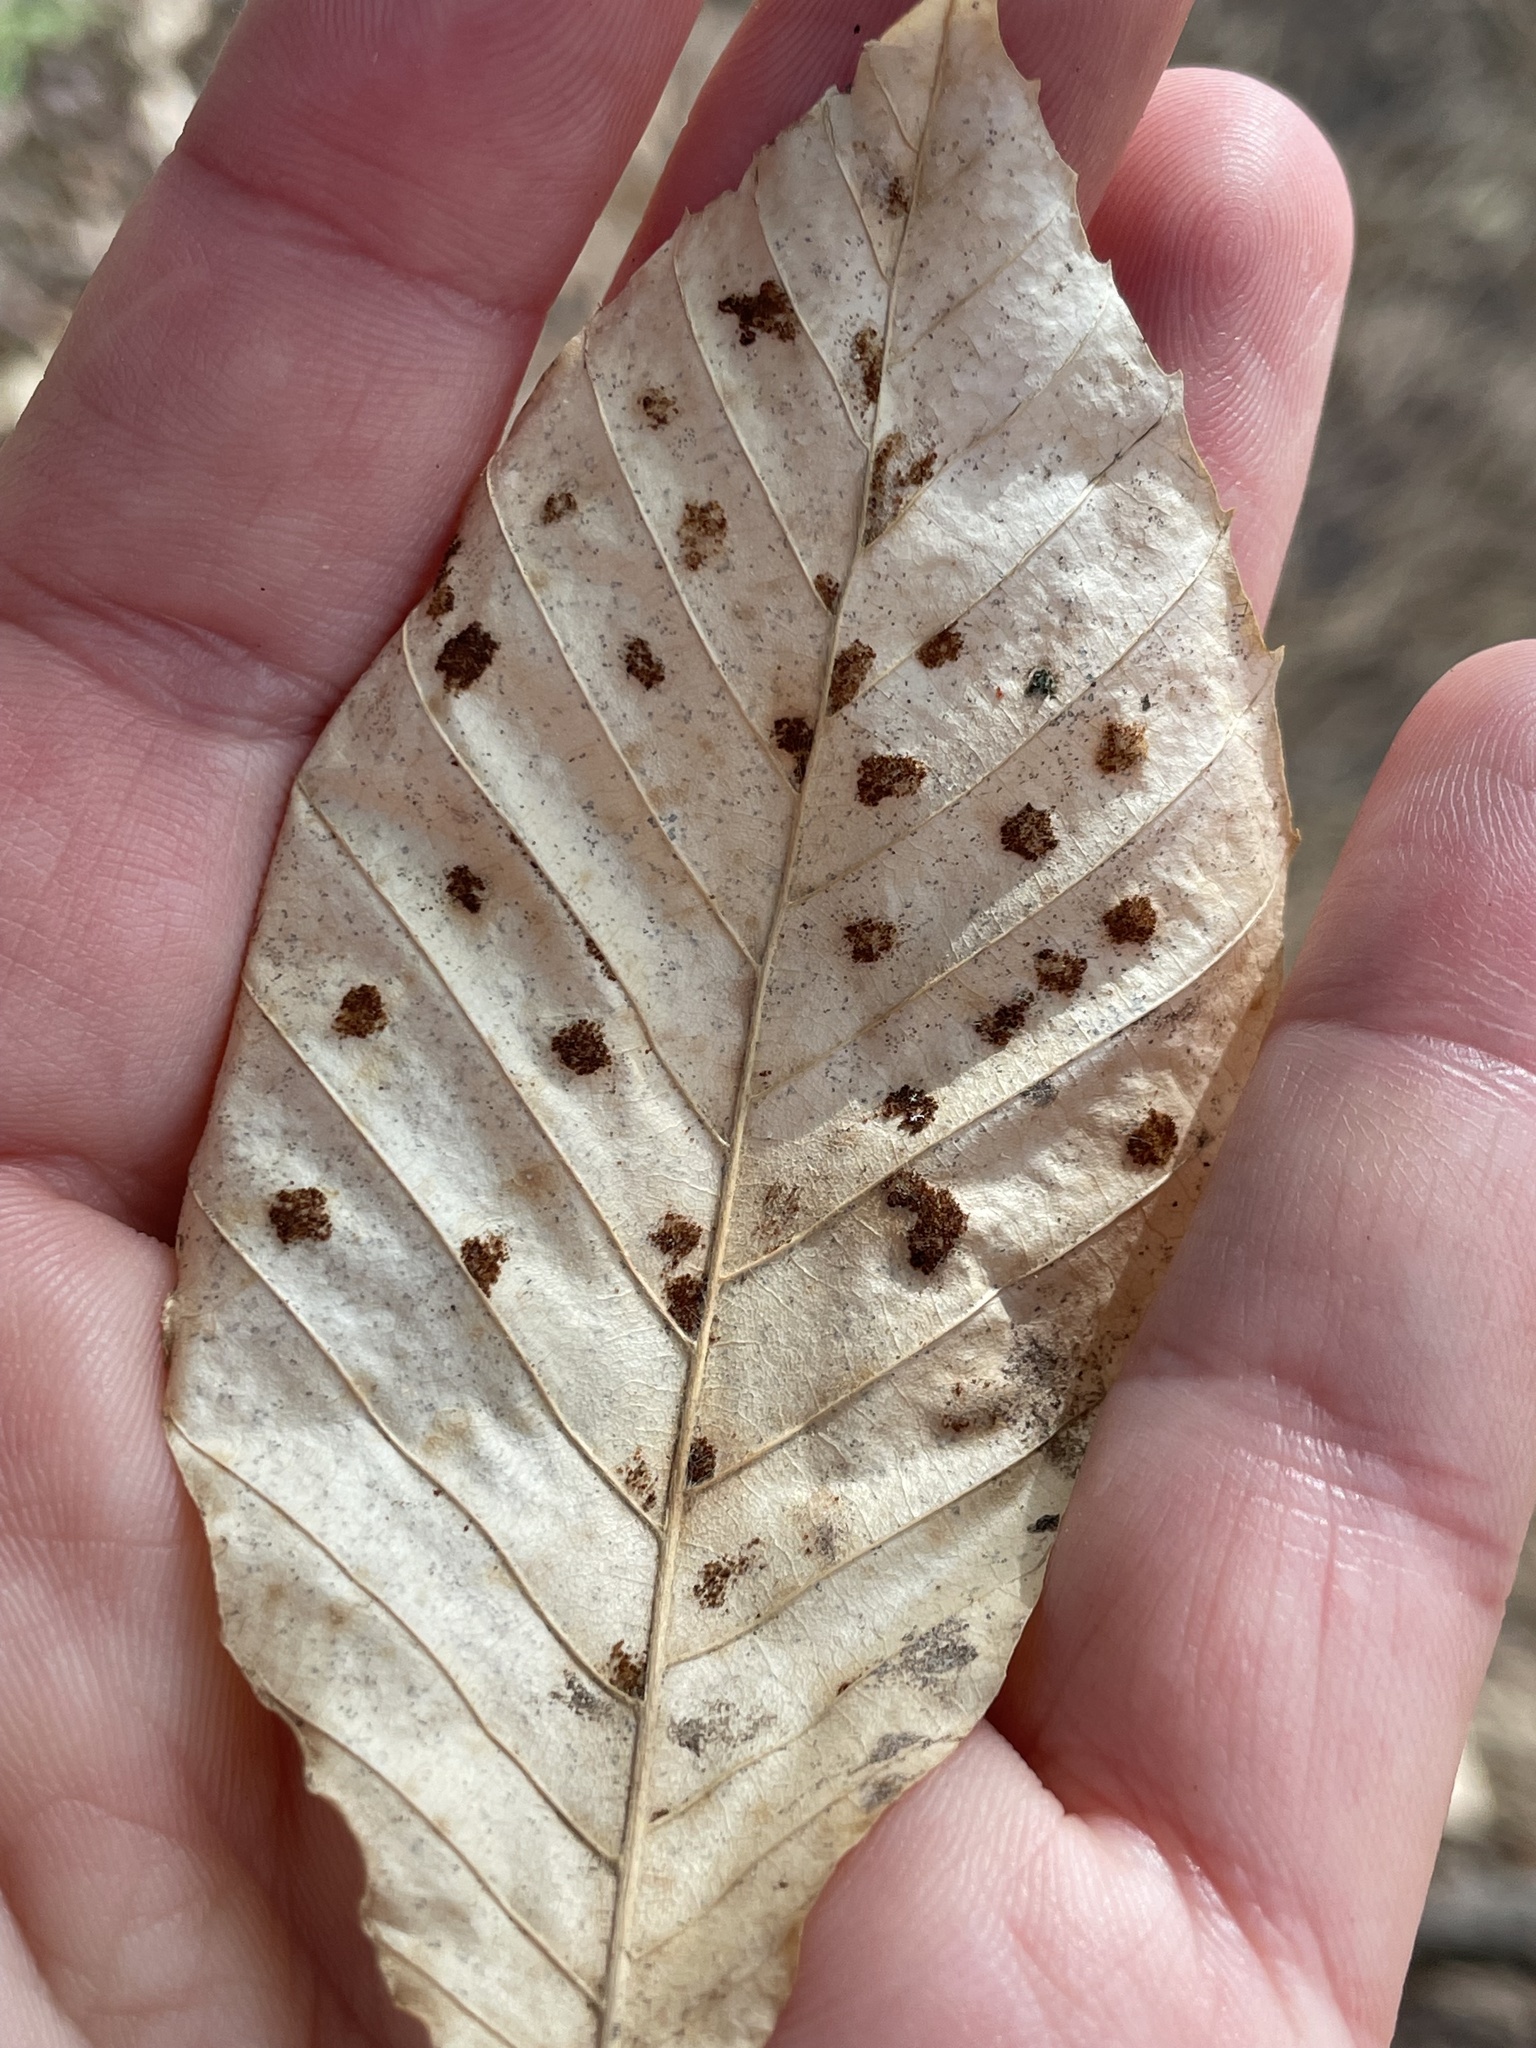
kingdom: Animalia
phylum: Arthropoda
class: Arachnida
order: Trombidiformes
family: Eriophyidae
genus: Acalitus
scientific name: Acalitus
